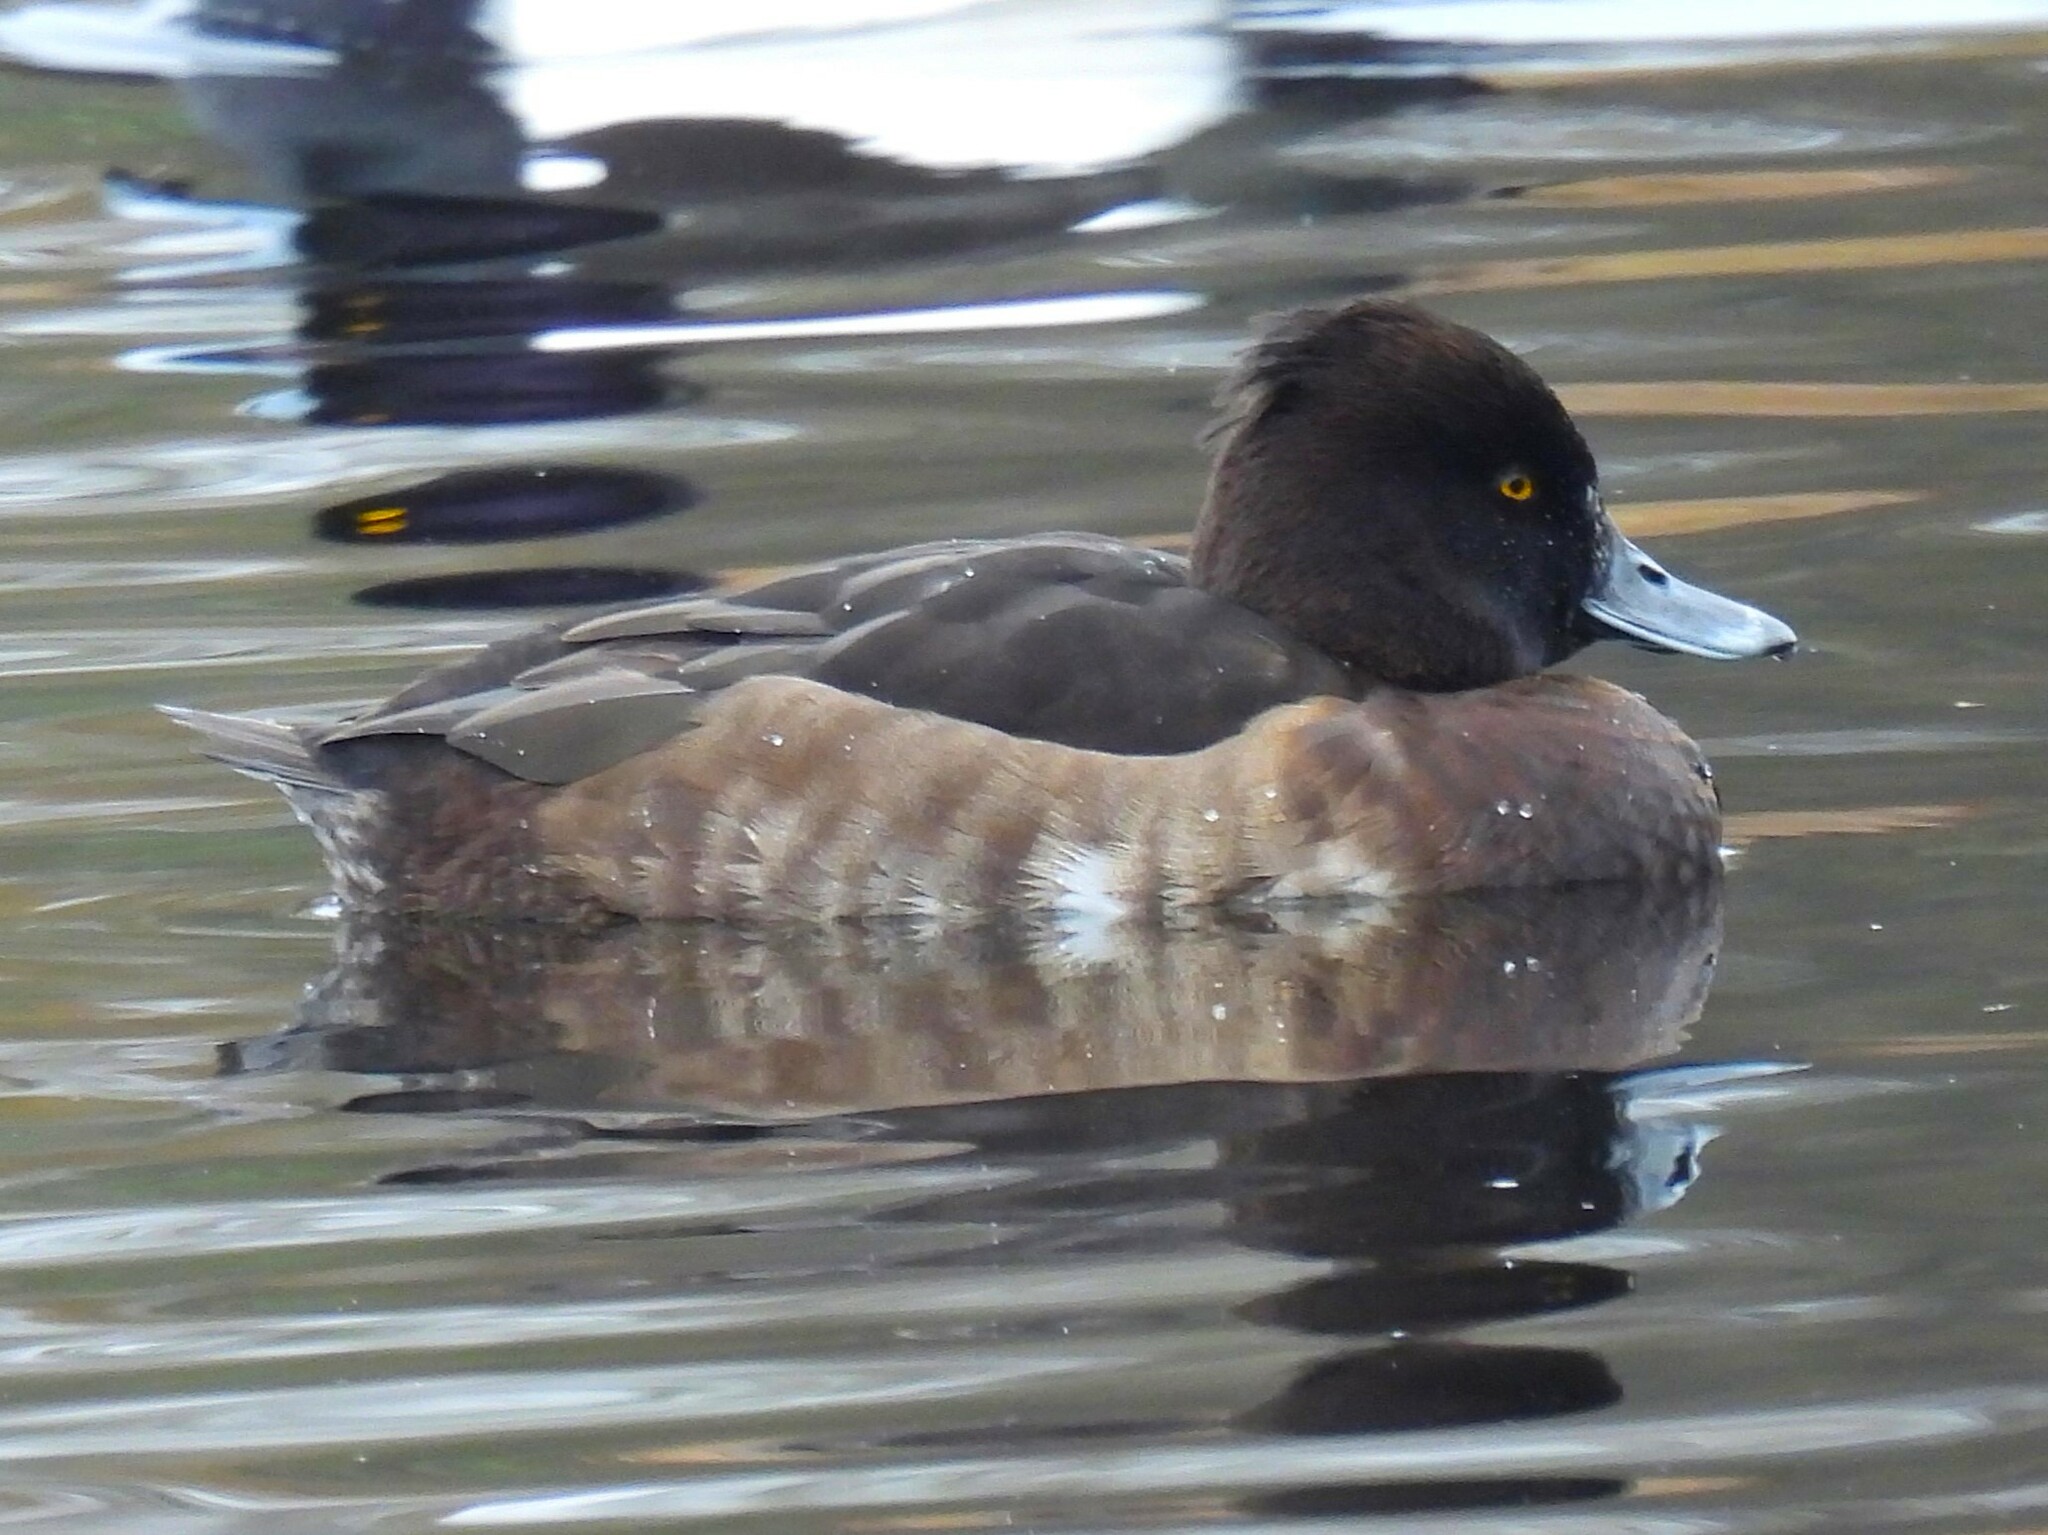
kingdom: Animalia
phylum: Chordata
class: Aves
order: Anseriformes
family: Anatidae
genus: Aythya
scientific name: Aythya fuligula
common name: Tufted duck
